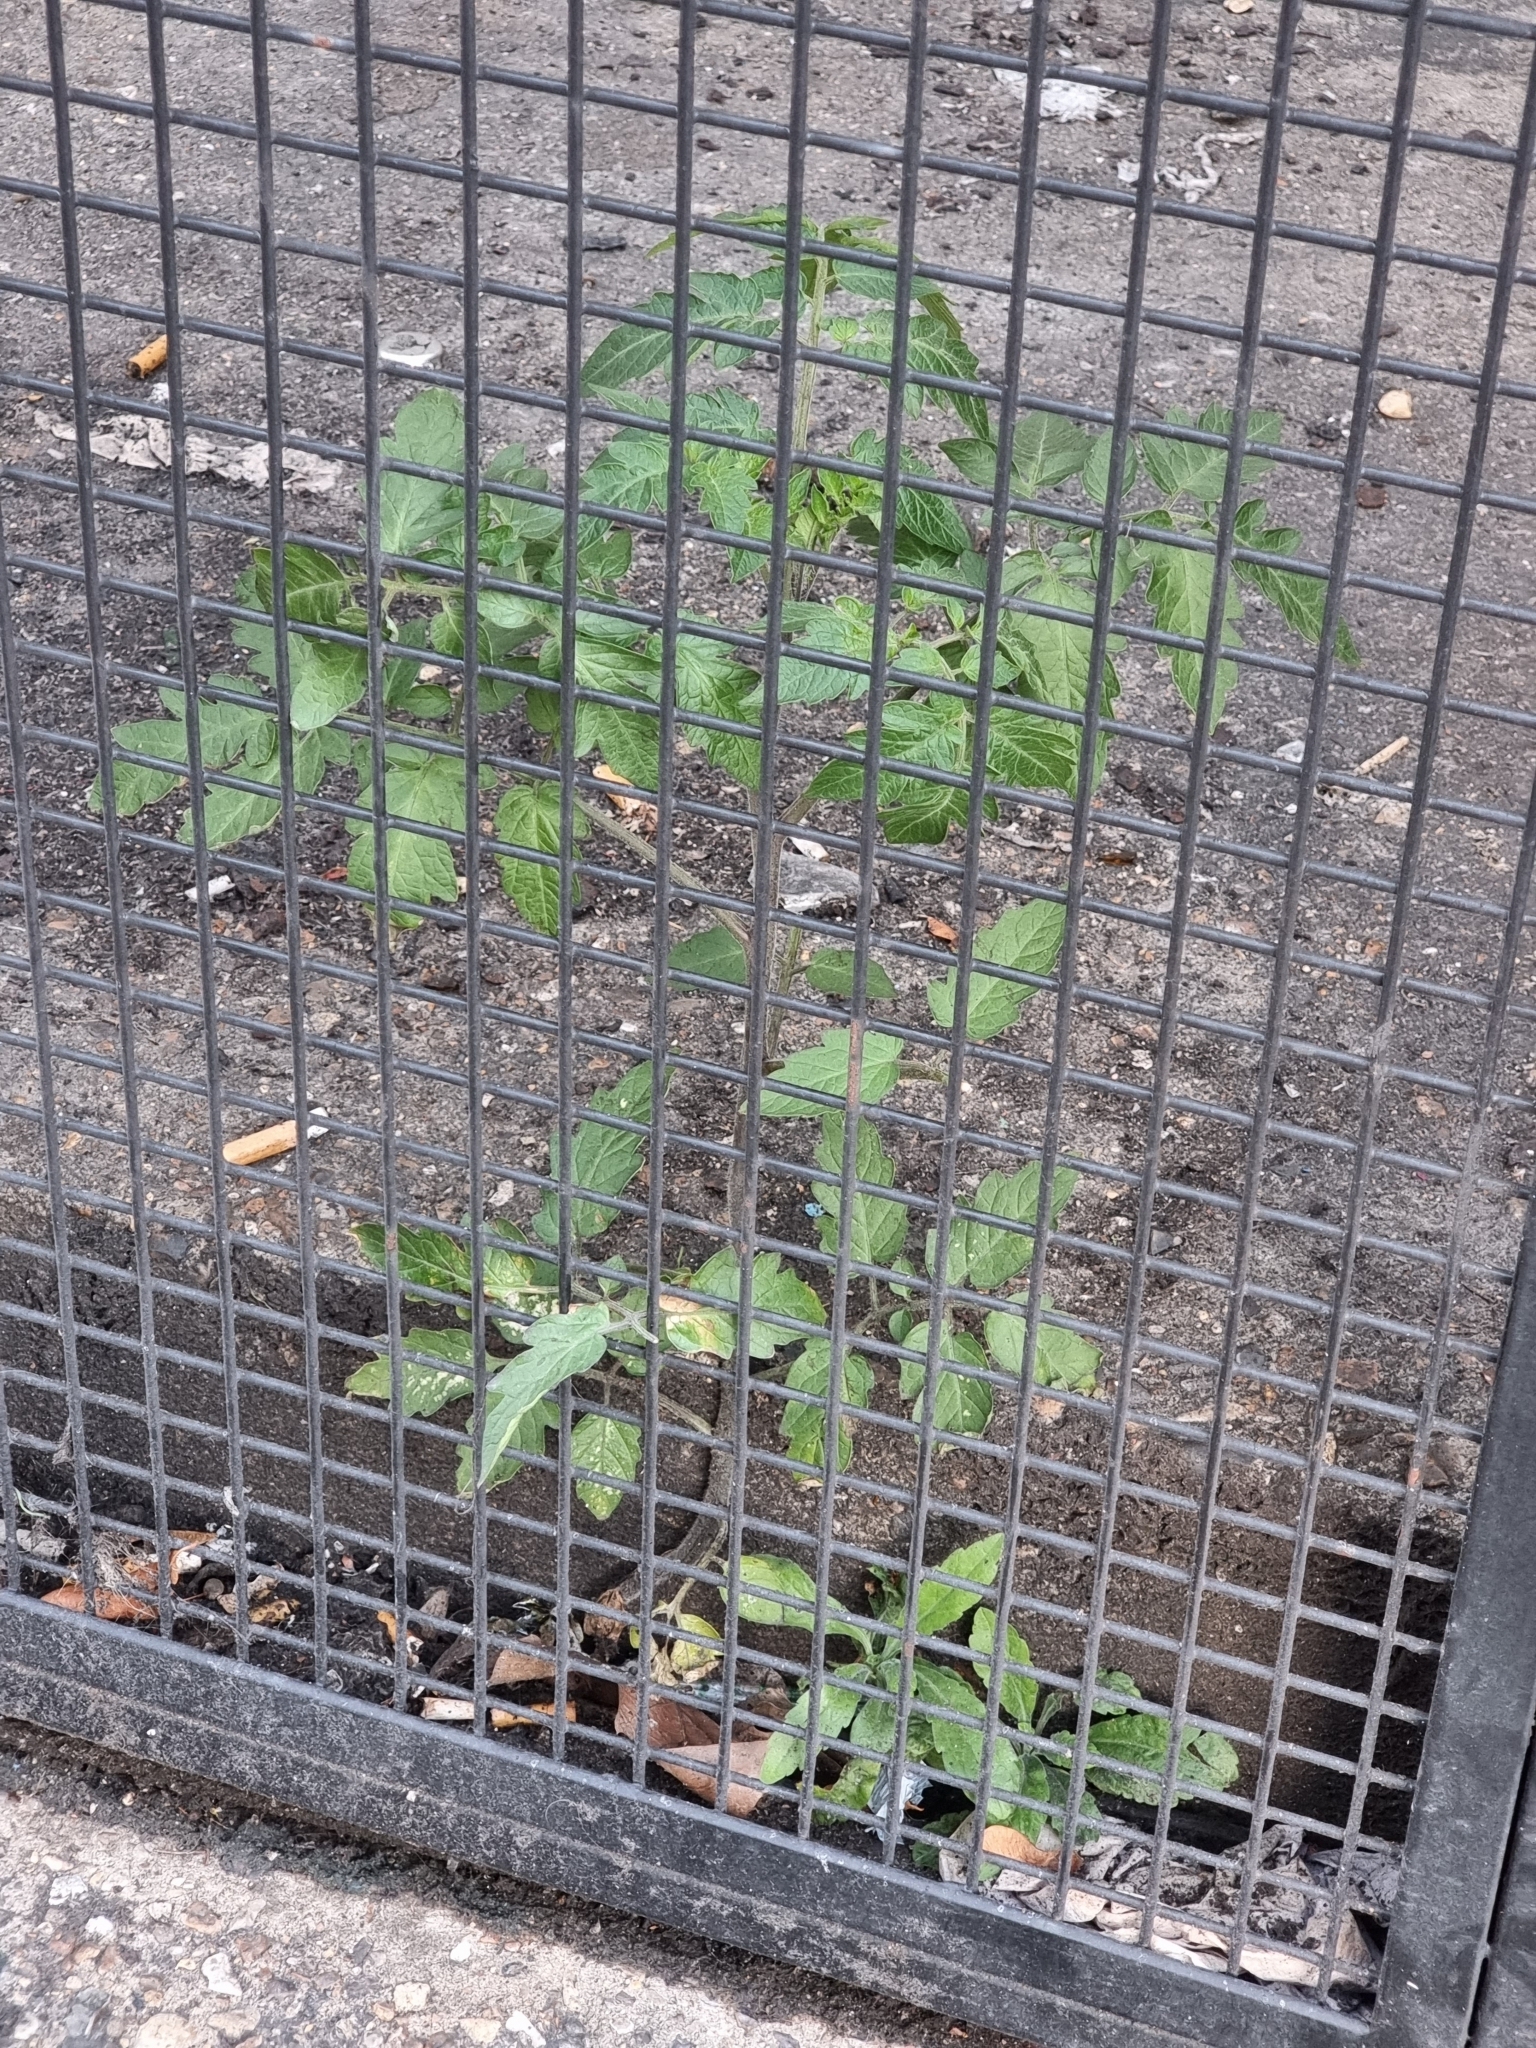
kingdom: Plantae
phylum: Tracheophyta
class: Magnoliopsida
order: Solanales
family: Solanaceae
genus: Solanum
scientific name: Solanum lycopersicum
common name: Garden tomato
